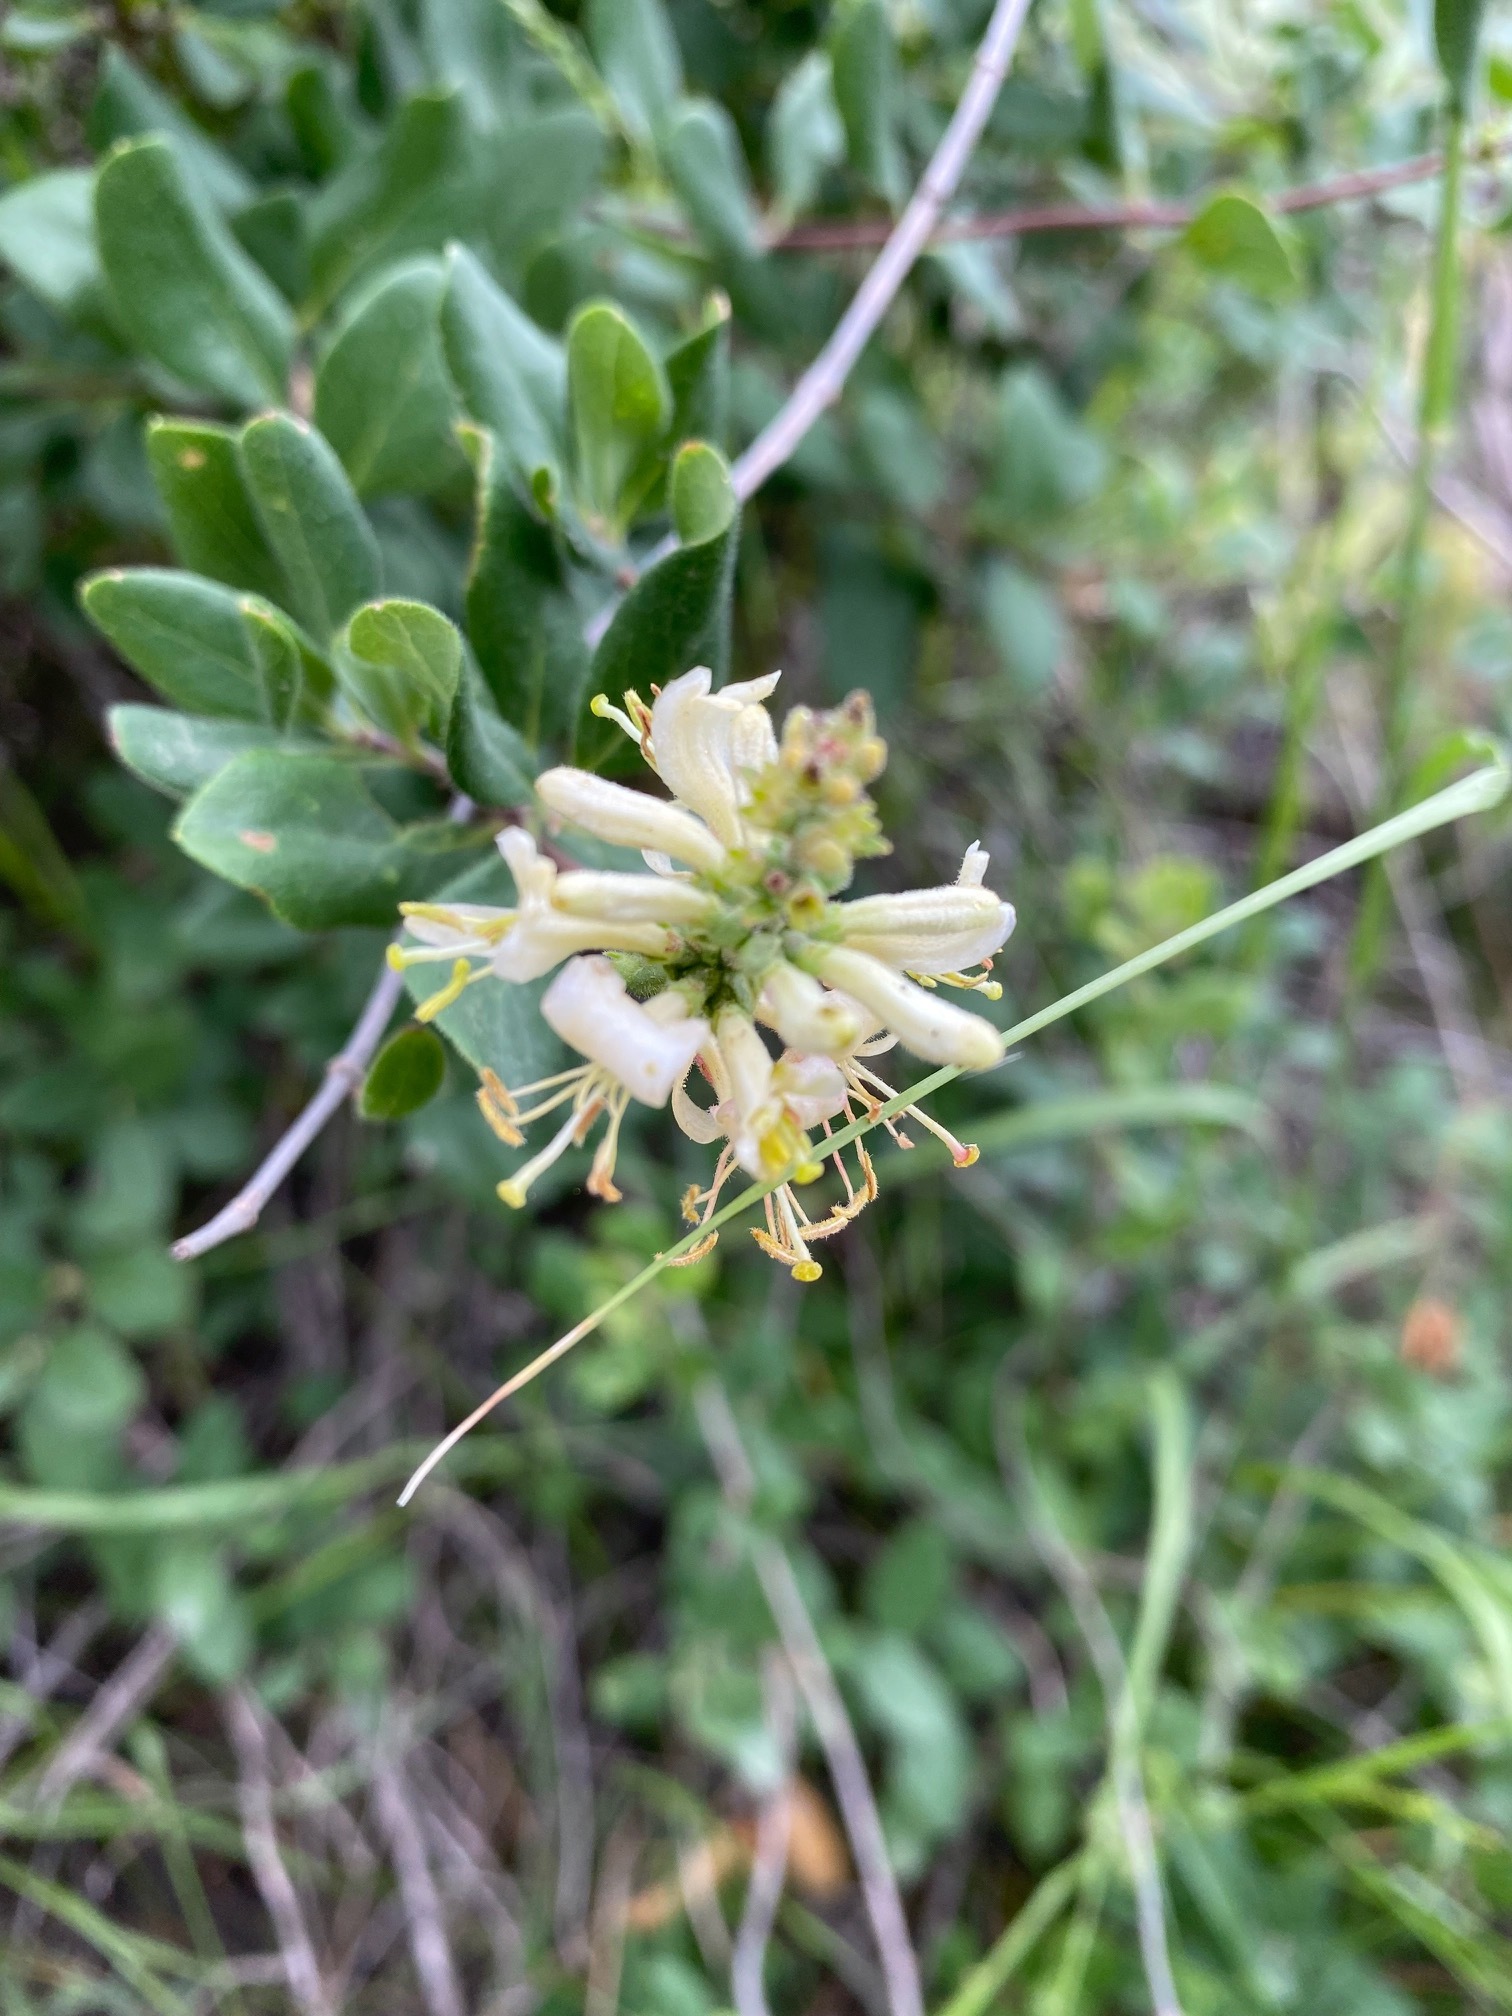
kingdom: Plantae
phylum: Tracheophyta
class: Magnoliopsida
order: Dipsacales
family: Caprifoliaceae
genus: Lonicera
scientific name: Lonicera subspicata
